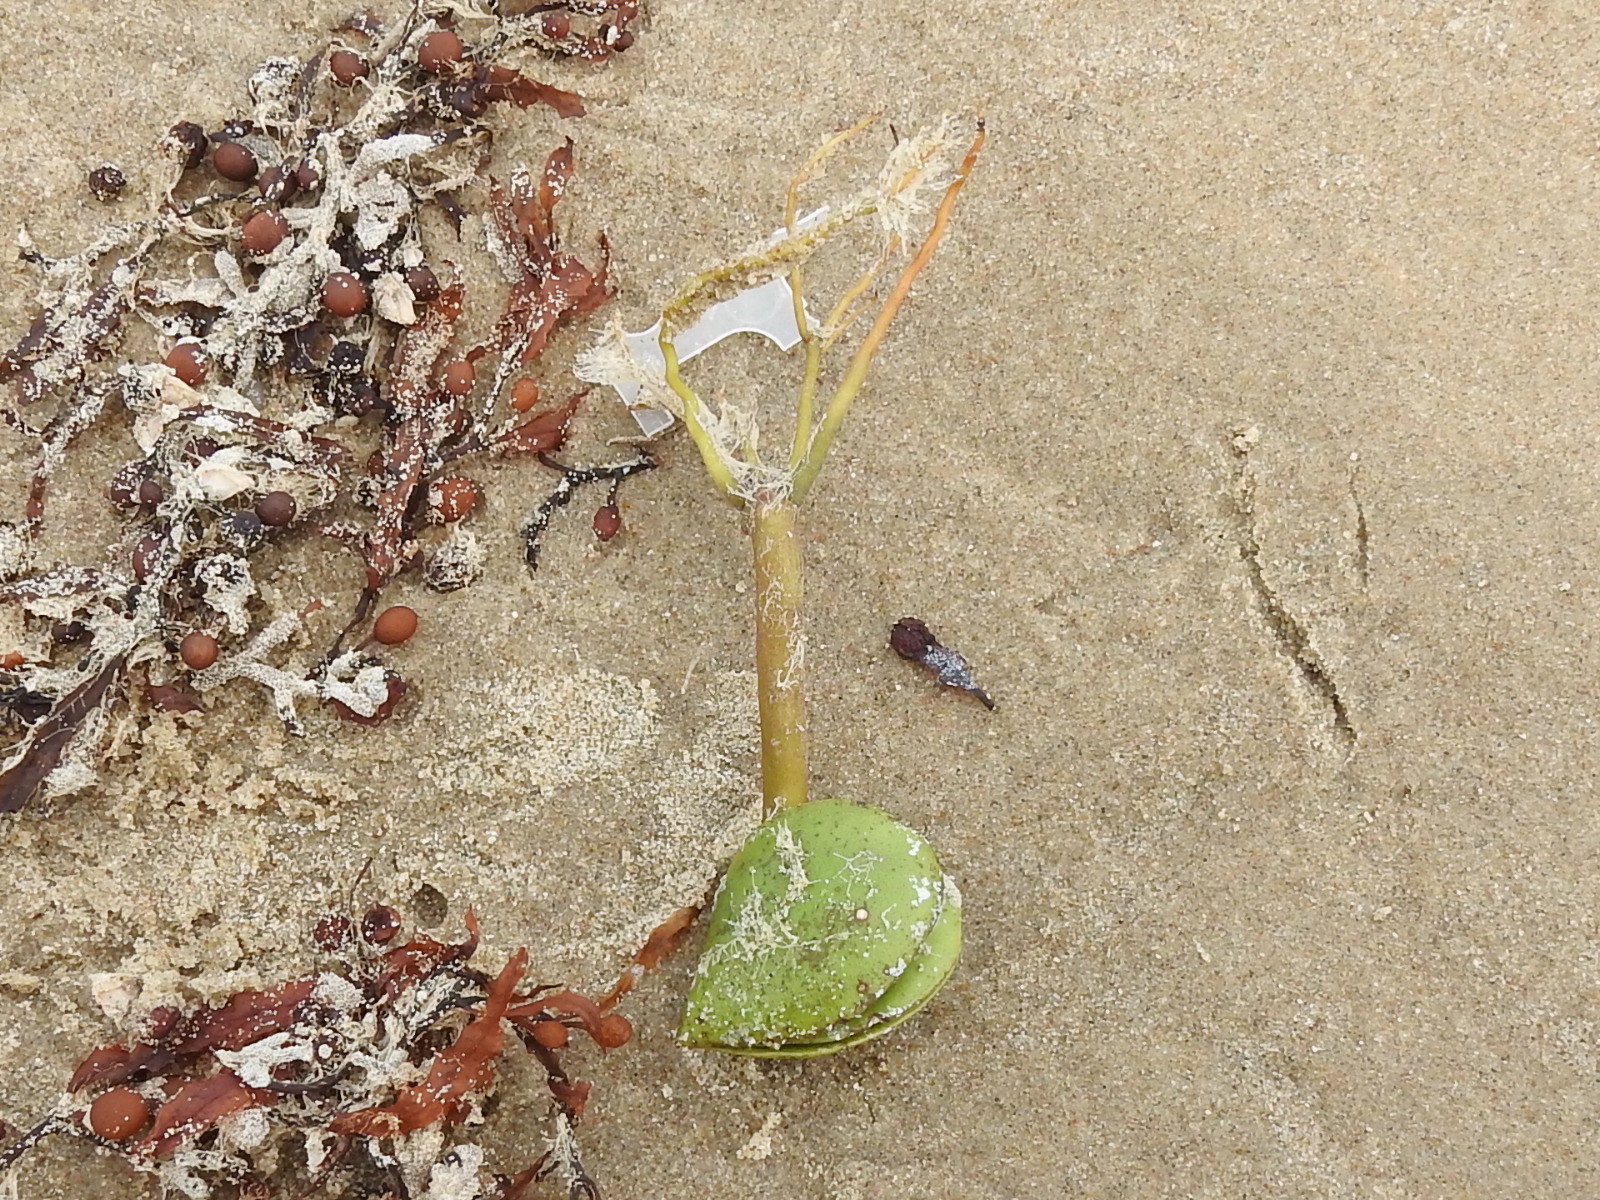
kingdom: Plantae
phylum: Tracheophyta
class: Magnoliopsida
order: Lamiales
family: Acanthaceae
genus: Avicennia
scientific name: Avicennia germinans
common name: Black mangrove
